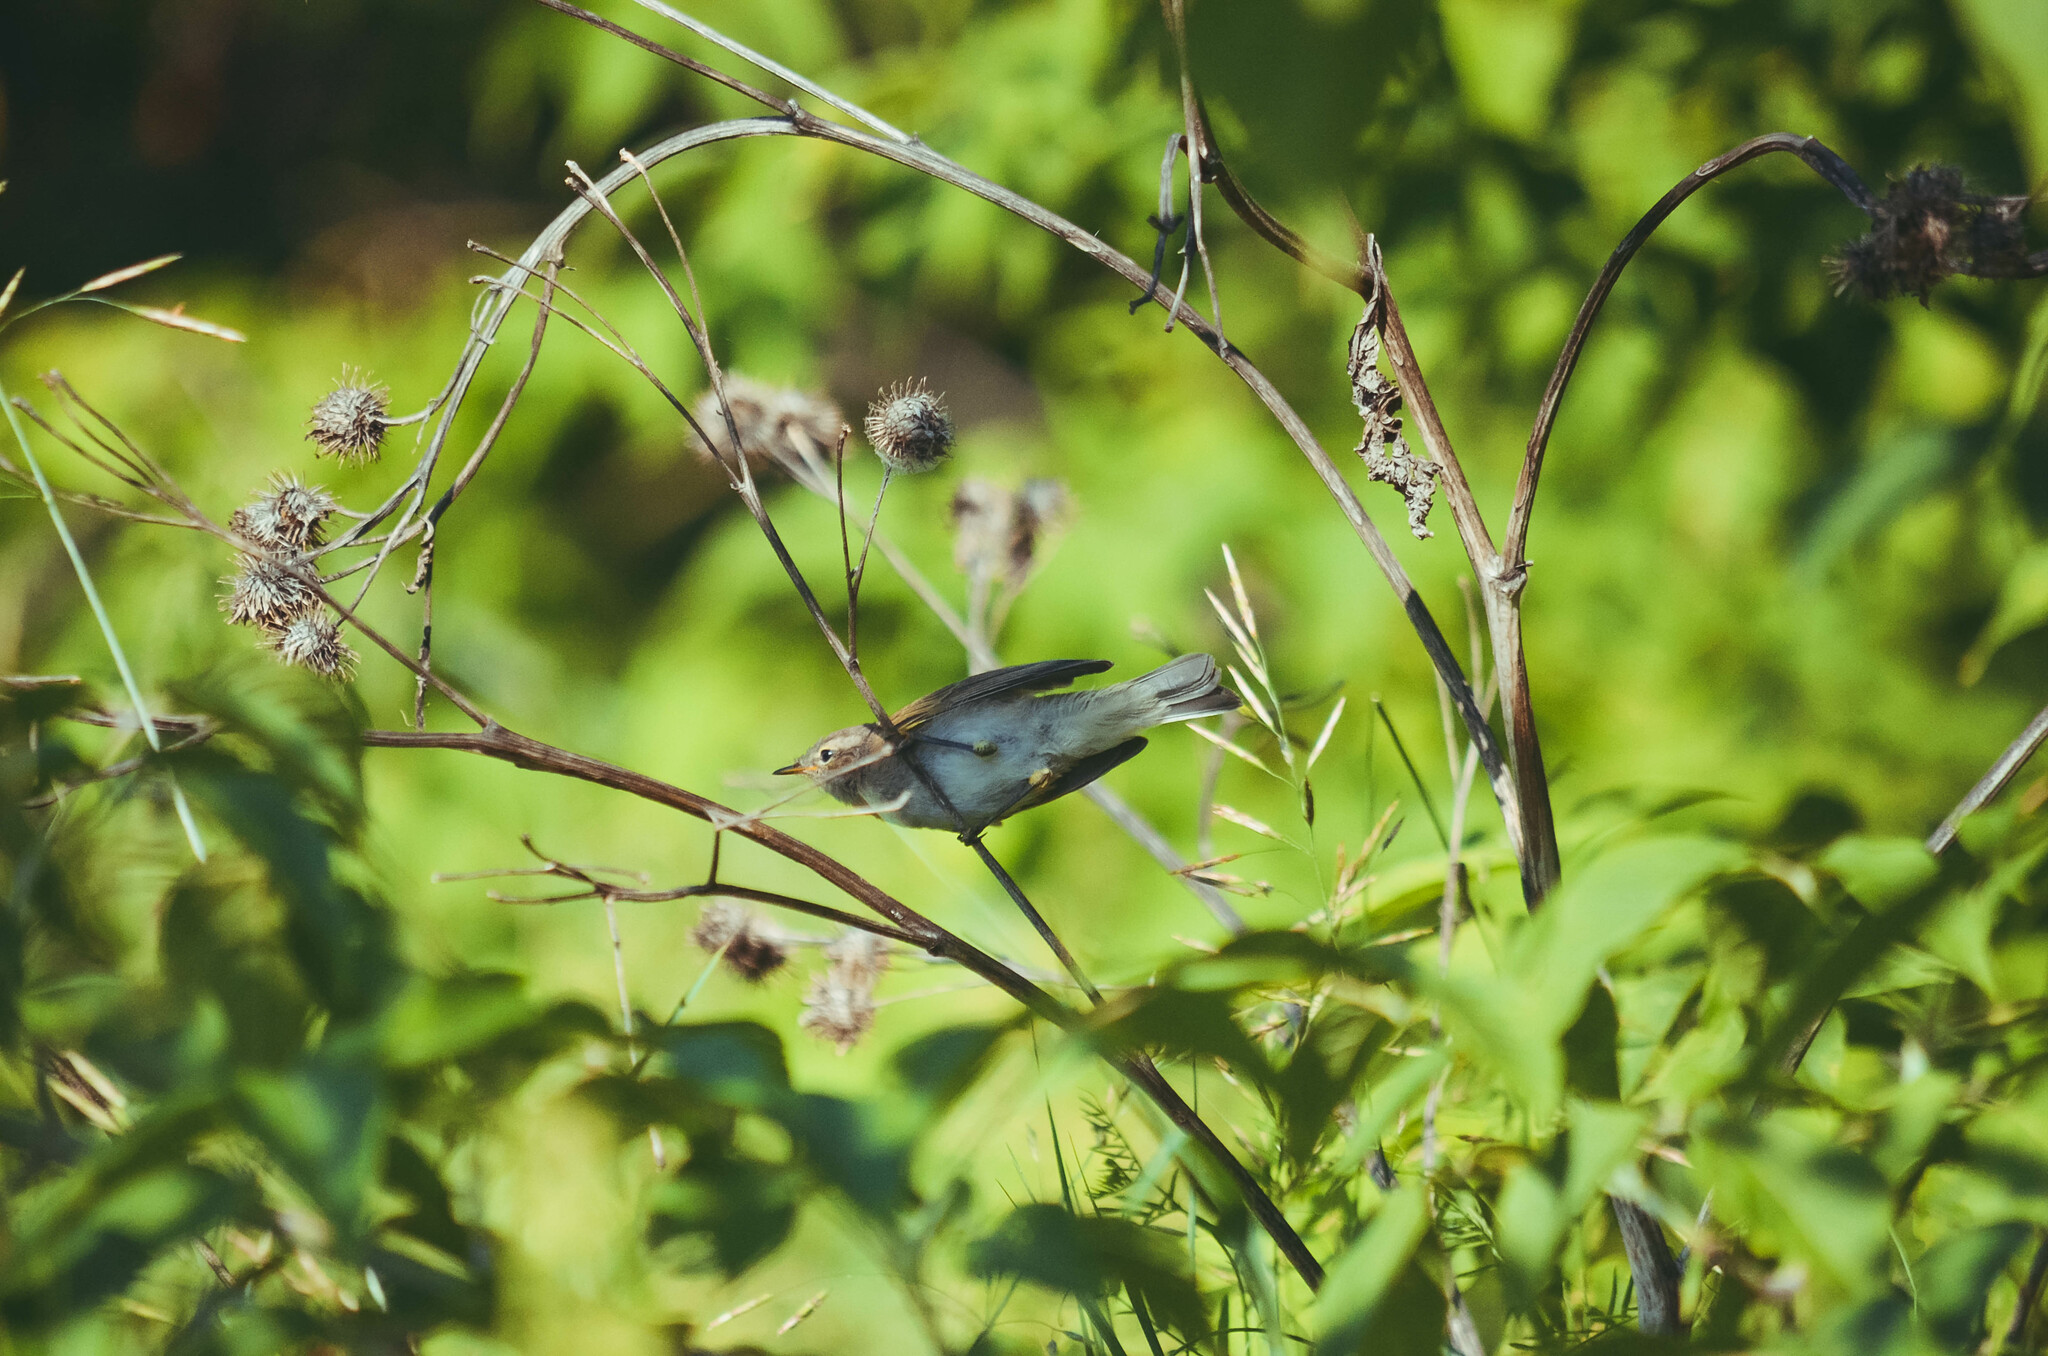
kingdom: Animalia
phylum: Chordata
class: Aves
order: Passeriformes
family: Phylloscopidae
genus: Phylloscopus
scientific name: Phylloscopus collybita
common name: Common chiffchaff
